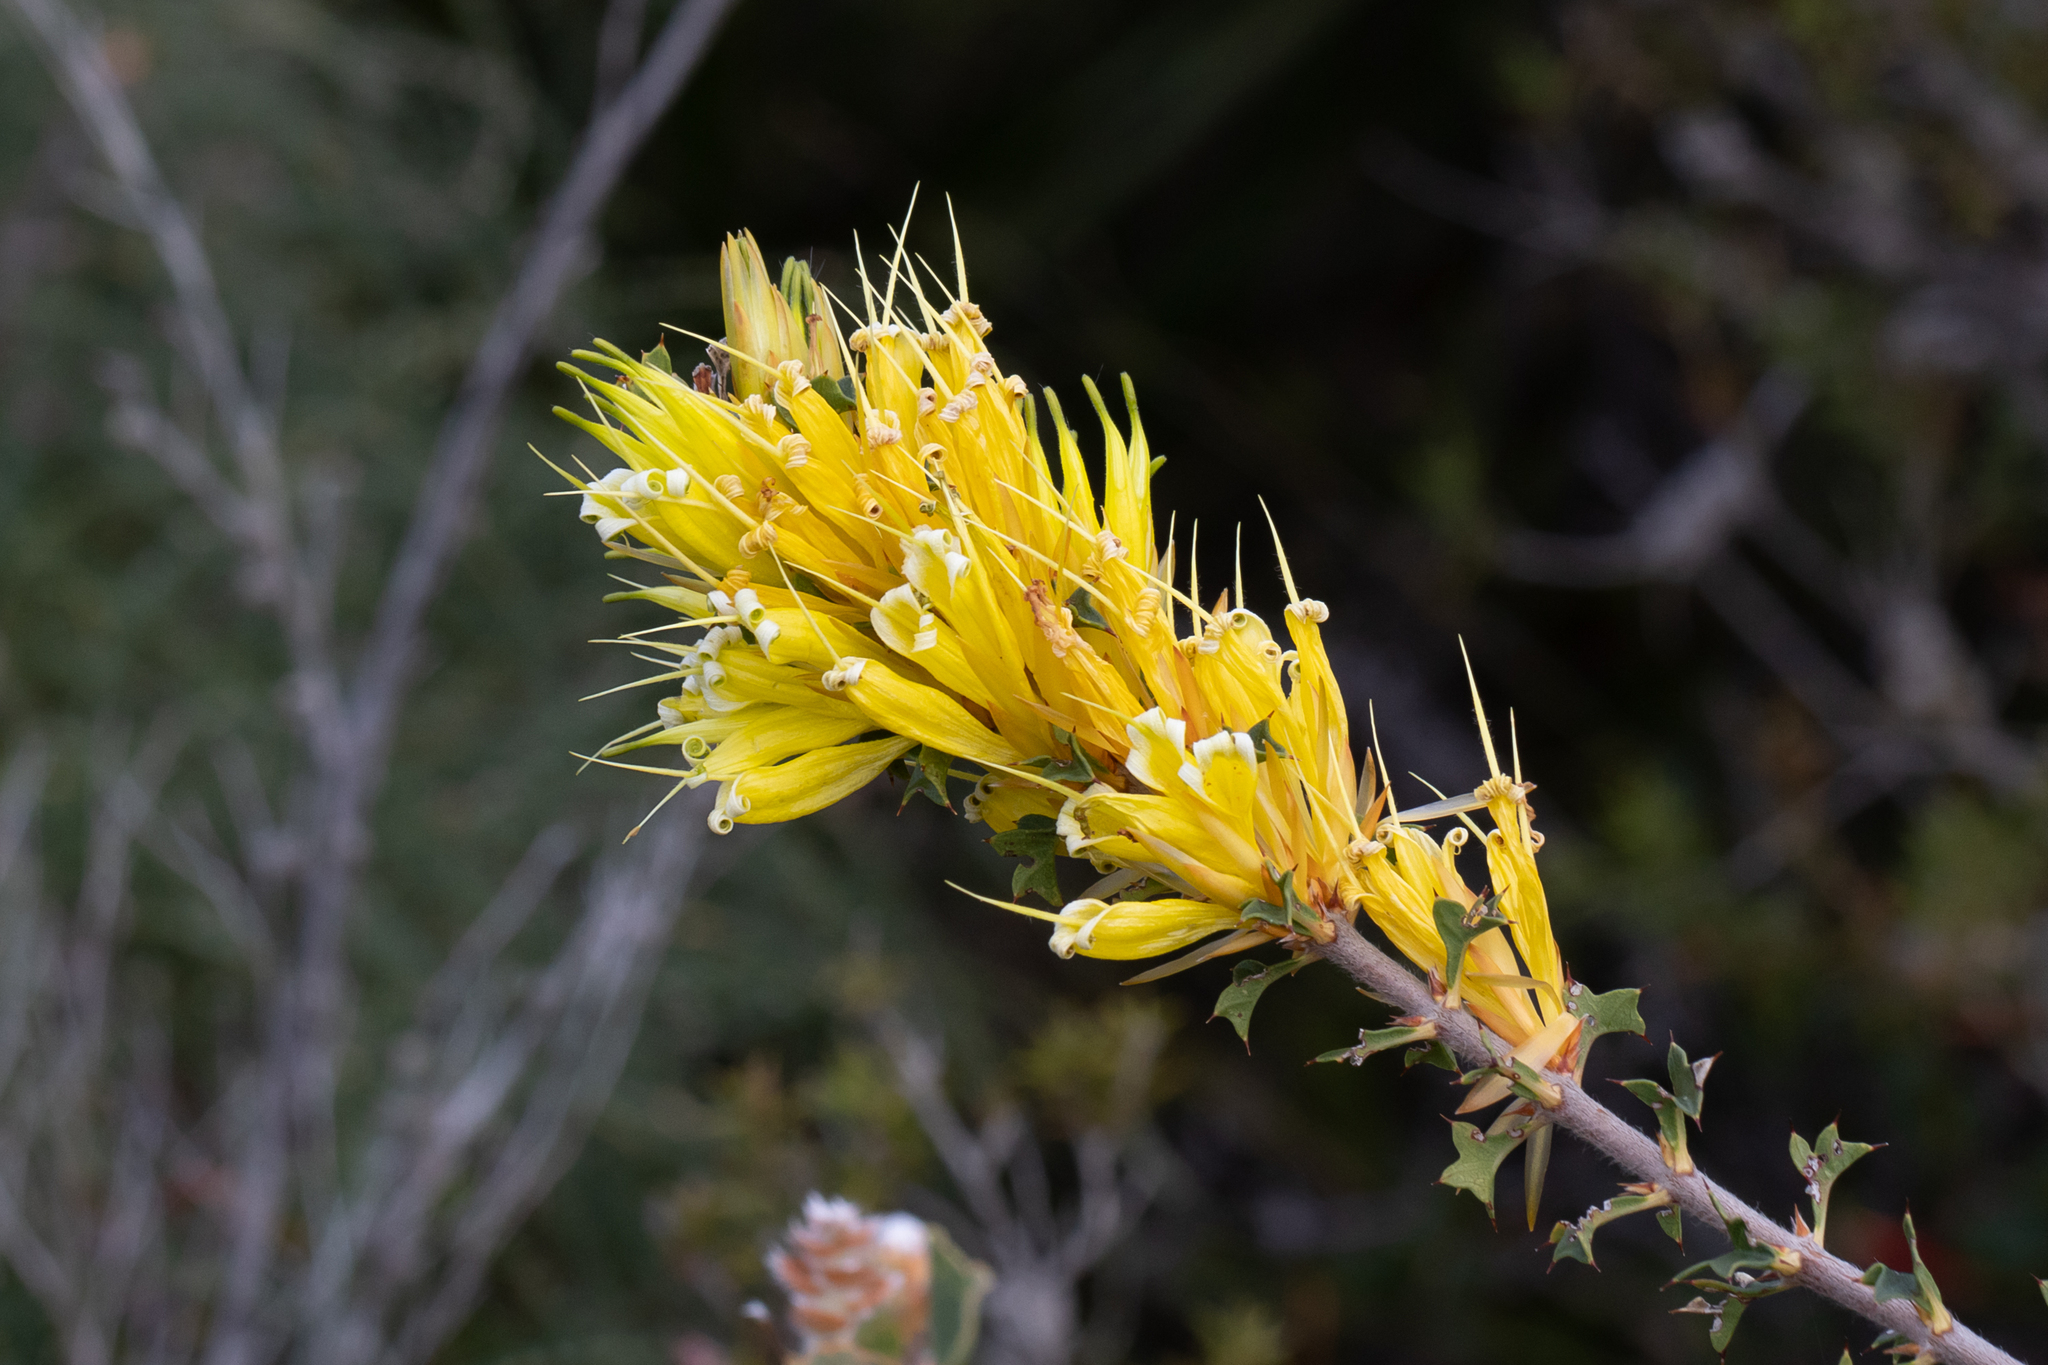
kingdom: Plantae
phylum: Tracheophyta
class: Magnoliopsida
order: Proteales
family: Proteaceae
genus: Lambertia
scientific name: Lambertia echinata
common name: Prickly honeysuckle
